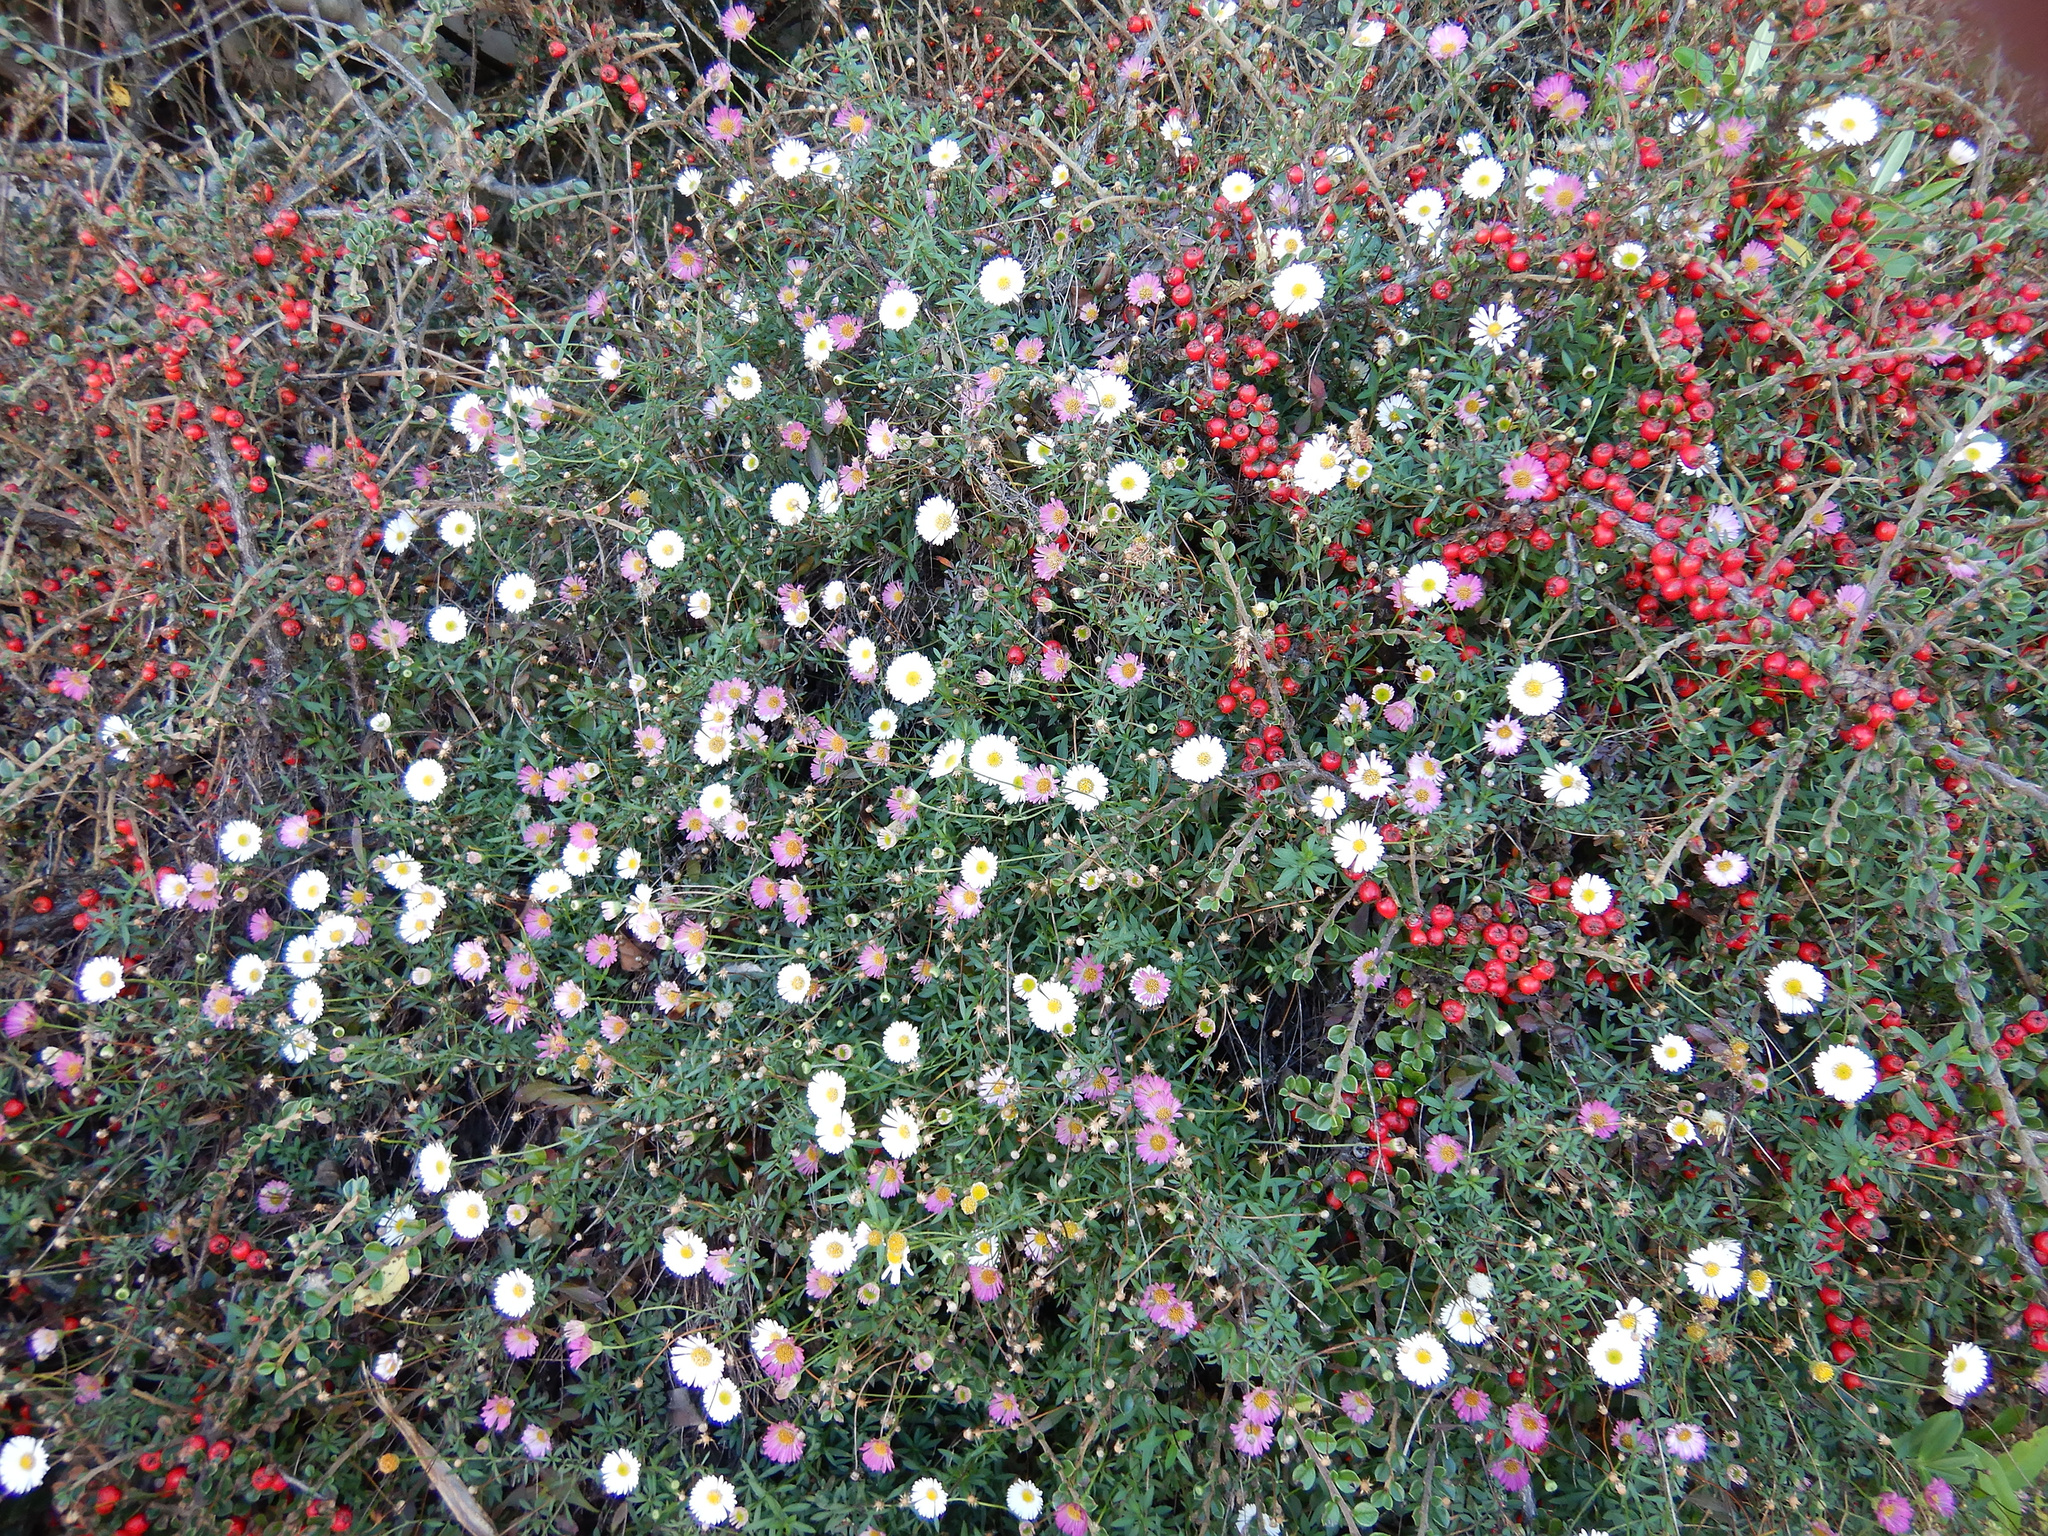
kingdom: Plantae
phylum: Tracheophyta
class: Magnoliopsida
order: Asterales
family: Asteraceae
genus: Erigeron
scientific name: Erigeron karvinskianus
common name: Mexican fleabane
